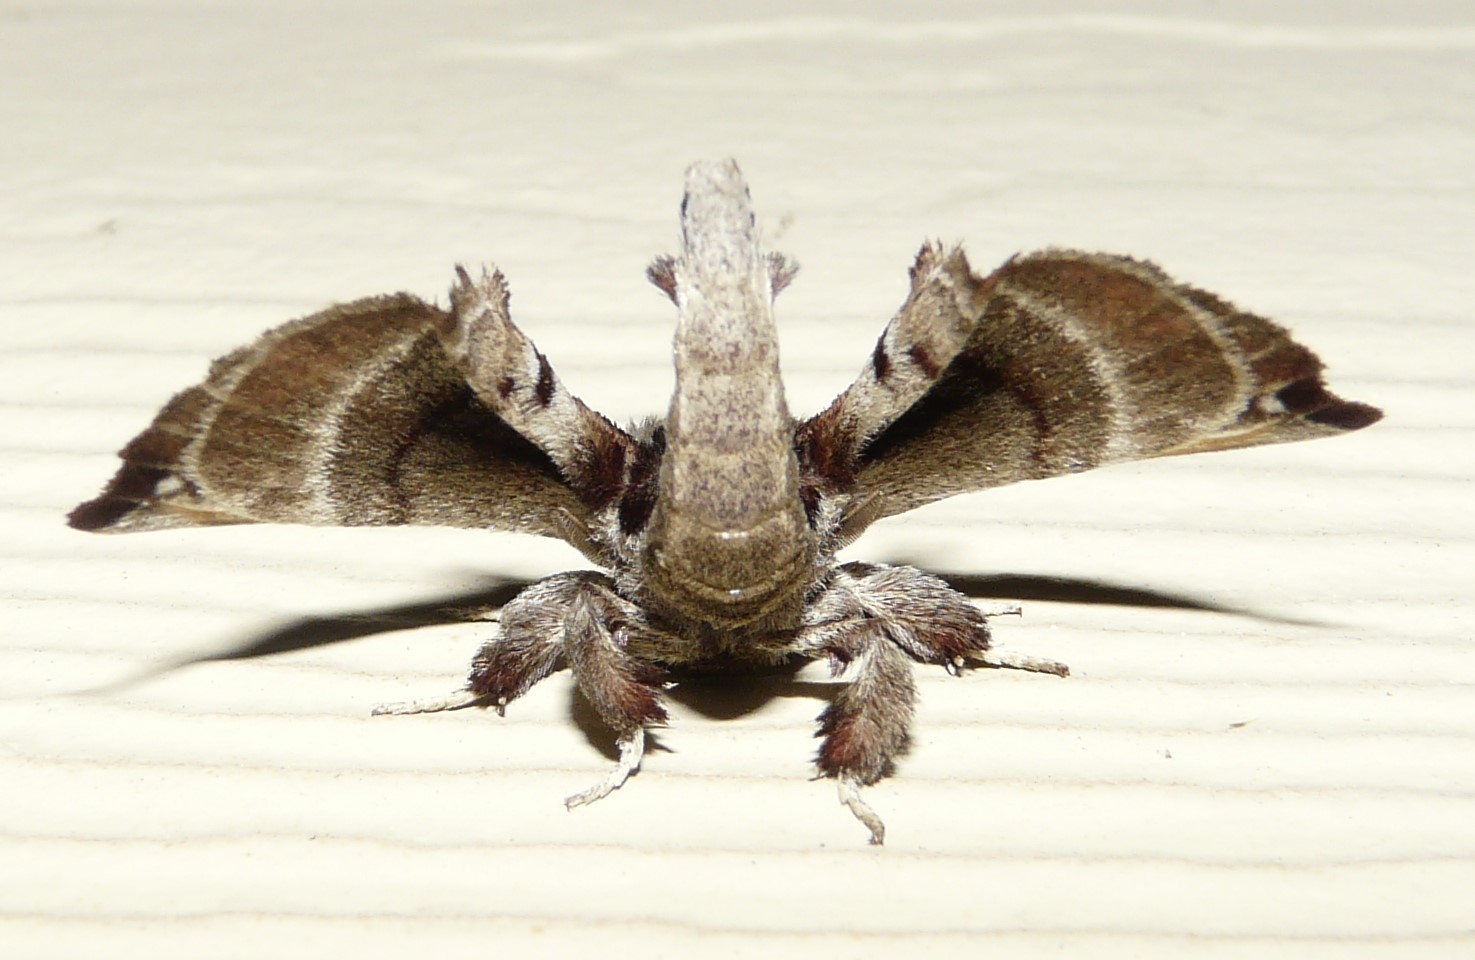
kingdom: Animalia
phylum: Arthropoda
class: Insecta
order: Lepidoptera
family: Apatelodidae
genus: Hygrochroa
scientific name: Hygrochroa Apatelodes torrefacta
